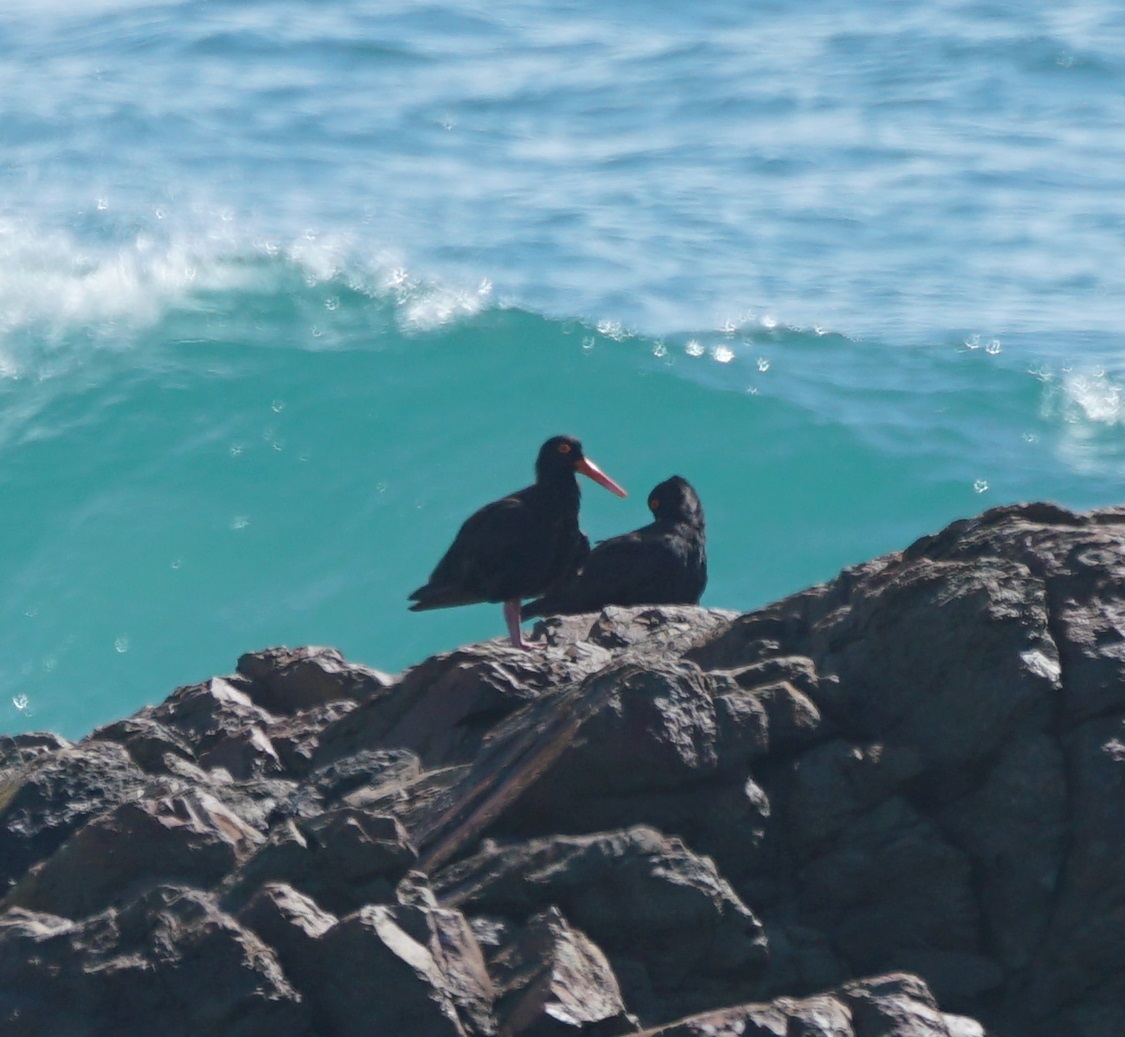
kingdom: Animalia
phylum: Chordata
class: Aves
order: Charadriiformes
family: Haematopodidae
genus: Haematopus
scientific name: Haematopus fuliginosus
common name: Sooty oystercatcher
